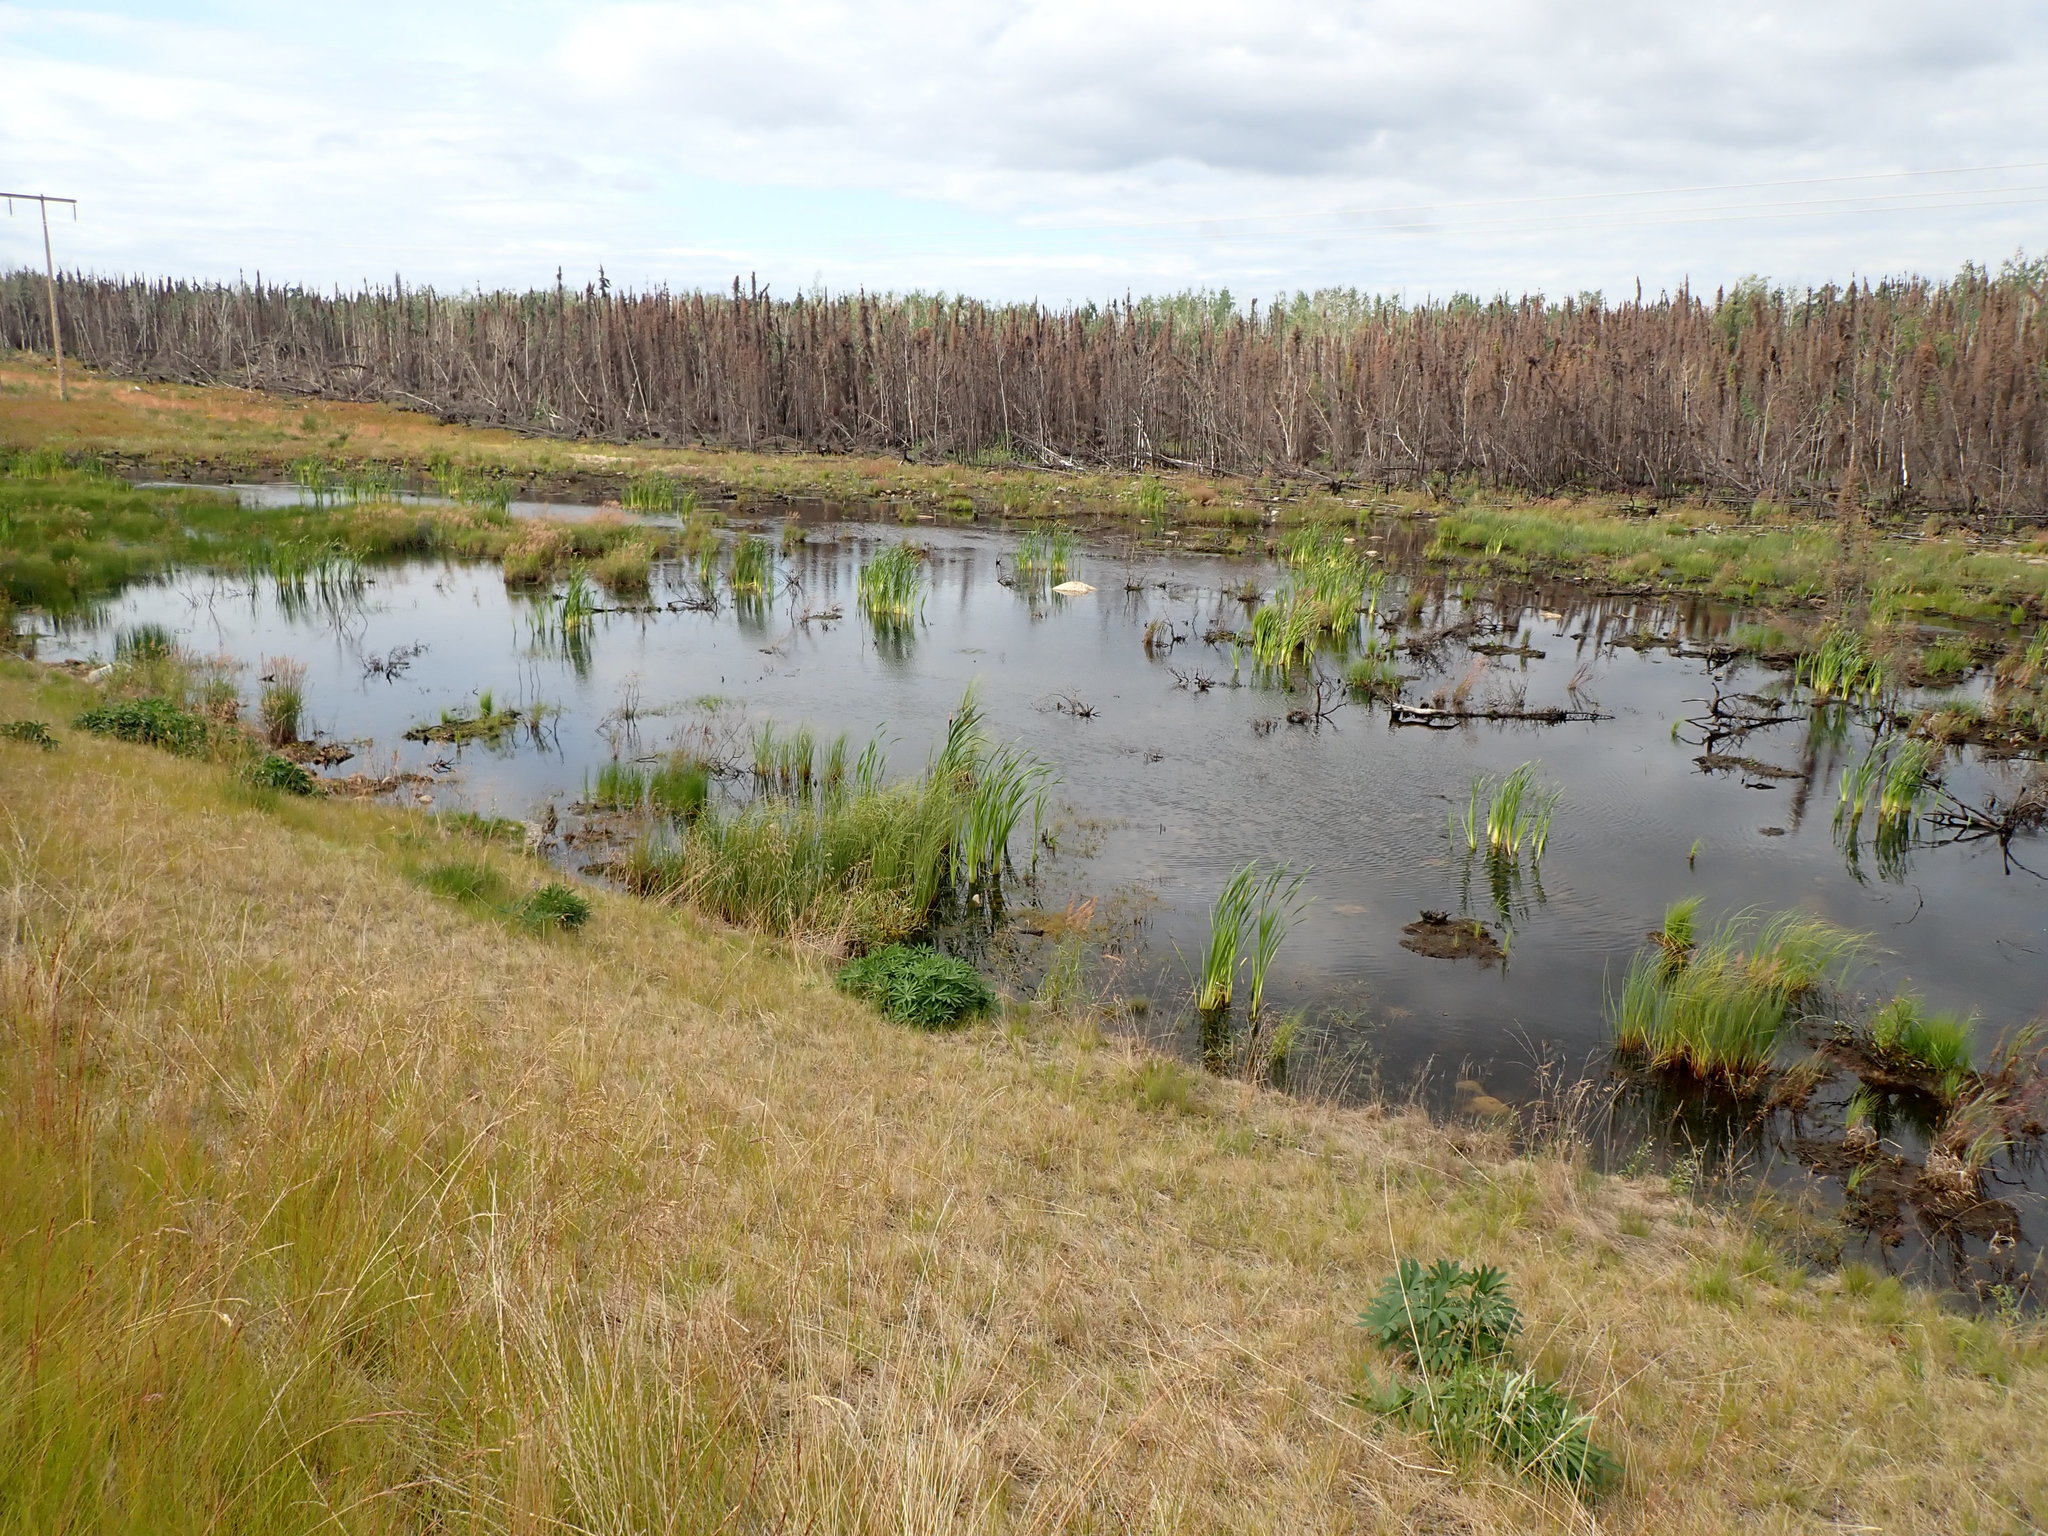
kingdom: Plantae
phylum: Tracheophyta
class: Liliopsida
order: Poales
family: Typhaceae
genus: Typha
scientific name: Typha latifolia
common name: Broadleaf cattail
